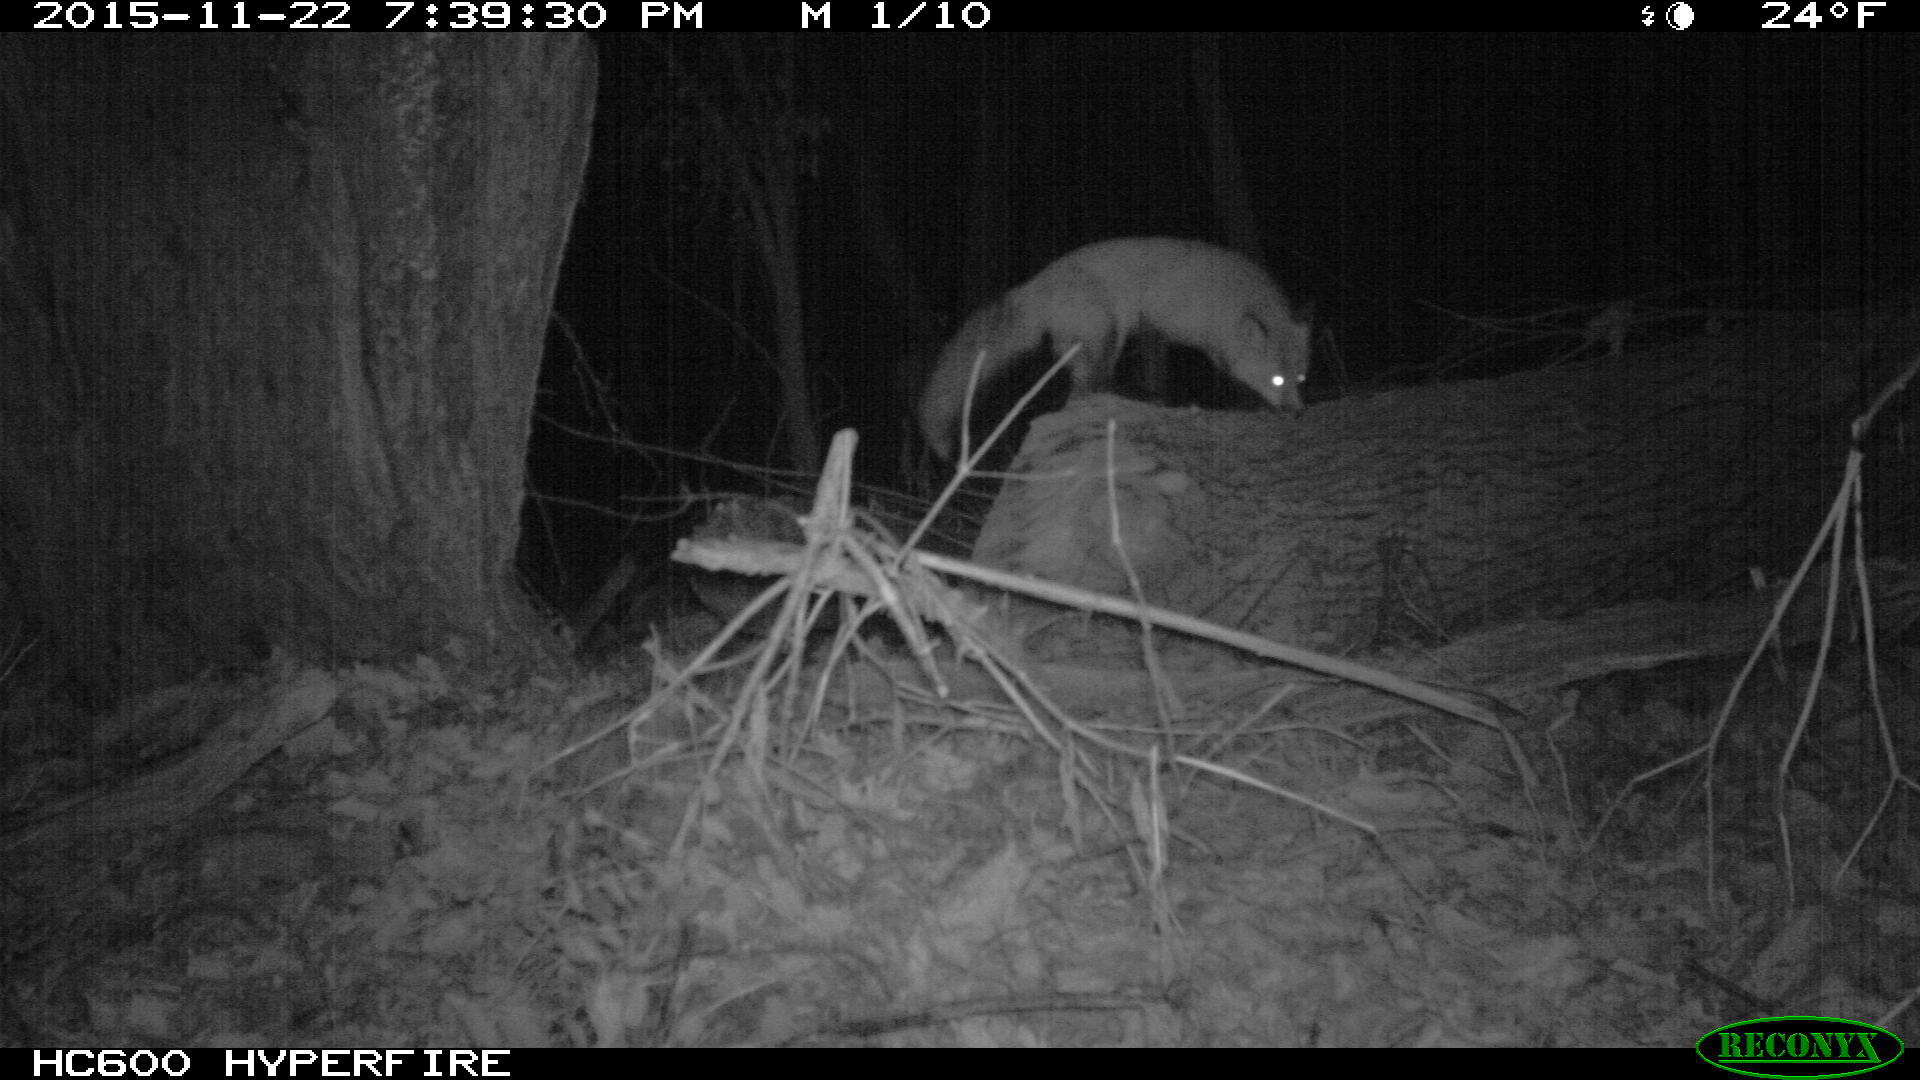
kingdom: Animalia
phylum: Chordata
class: Mammalia
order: Carnivora
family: Canidae
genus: Vulpes
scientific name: Vulpes vulpes
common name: Red fox
